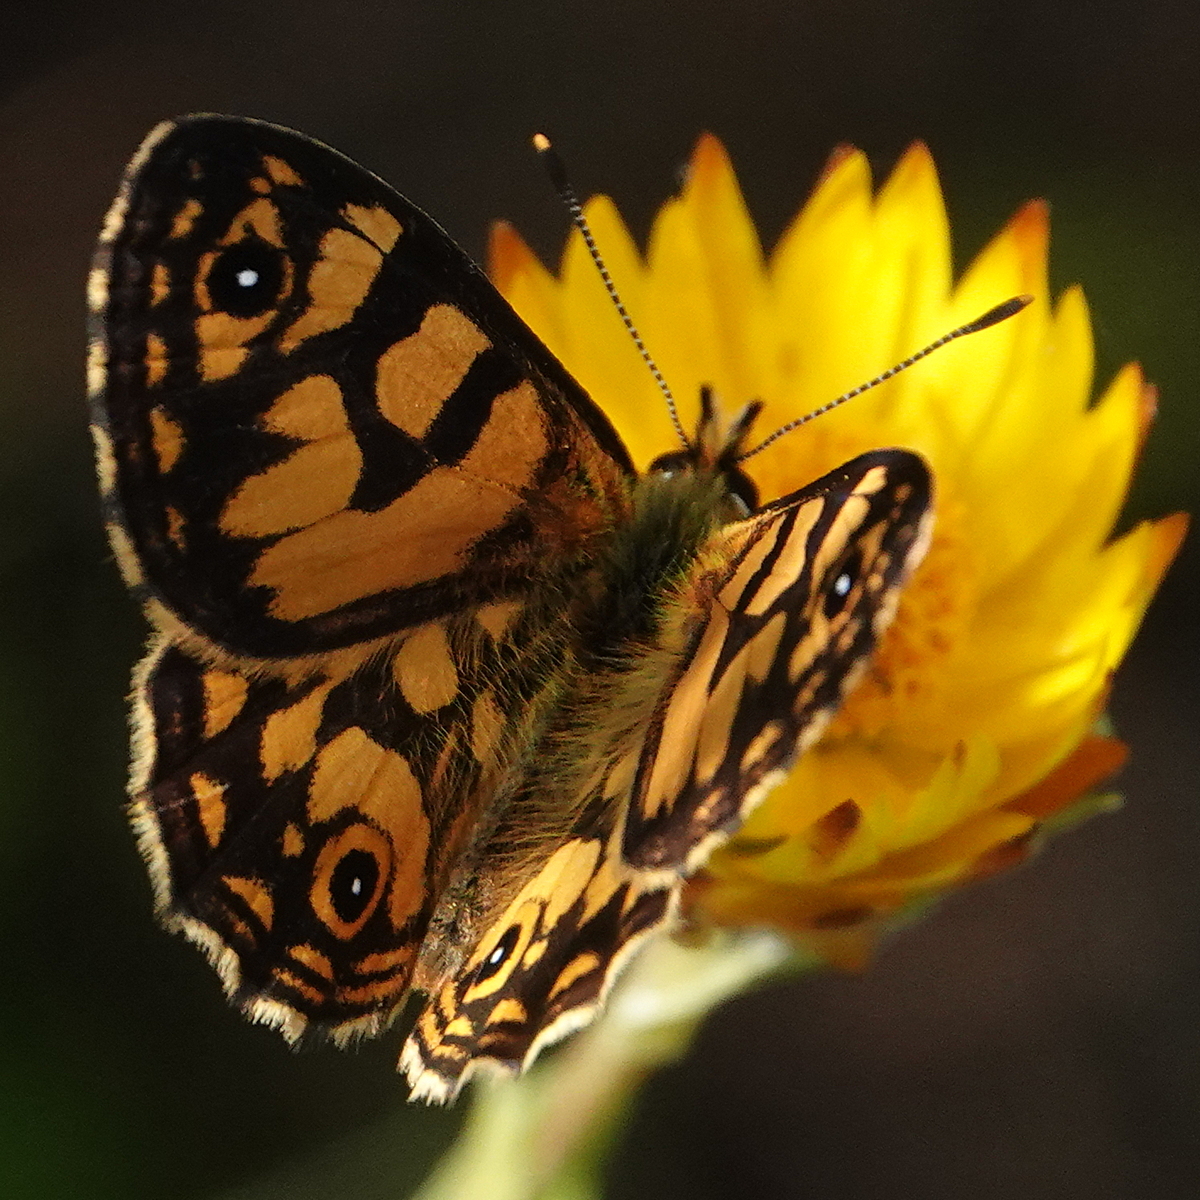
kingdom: Animalia
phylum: Arthropoda
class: Insecta
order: Lepidoptera
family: Nymphalidae
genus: Oreixenica
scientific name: Oreixenica lathoniella
